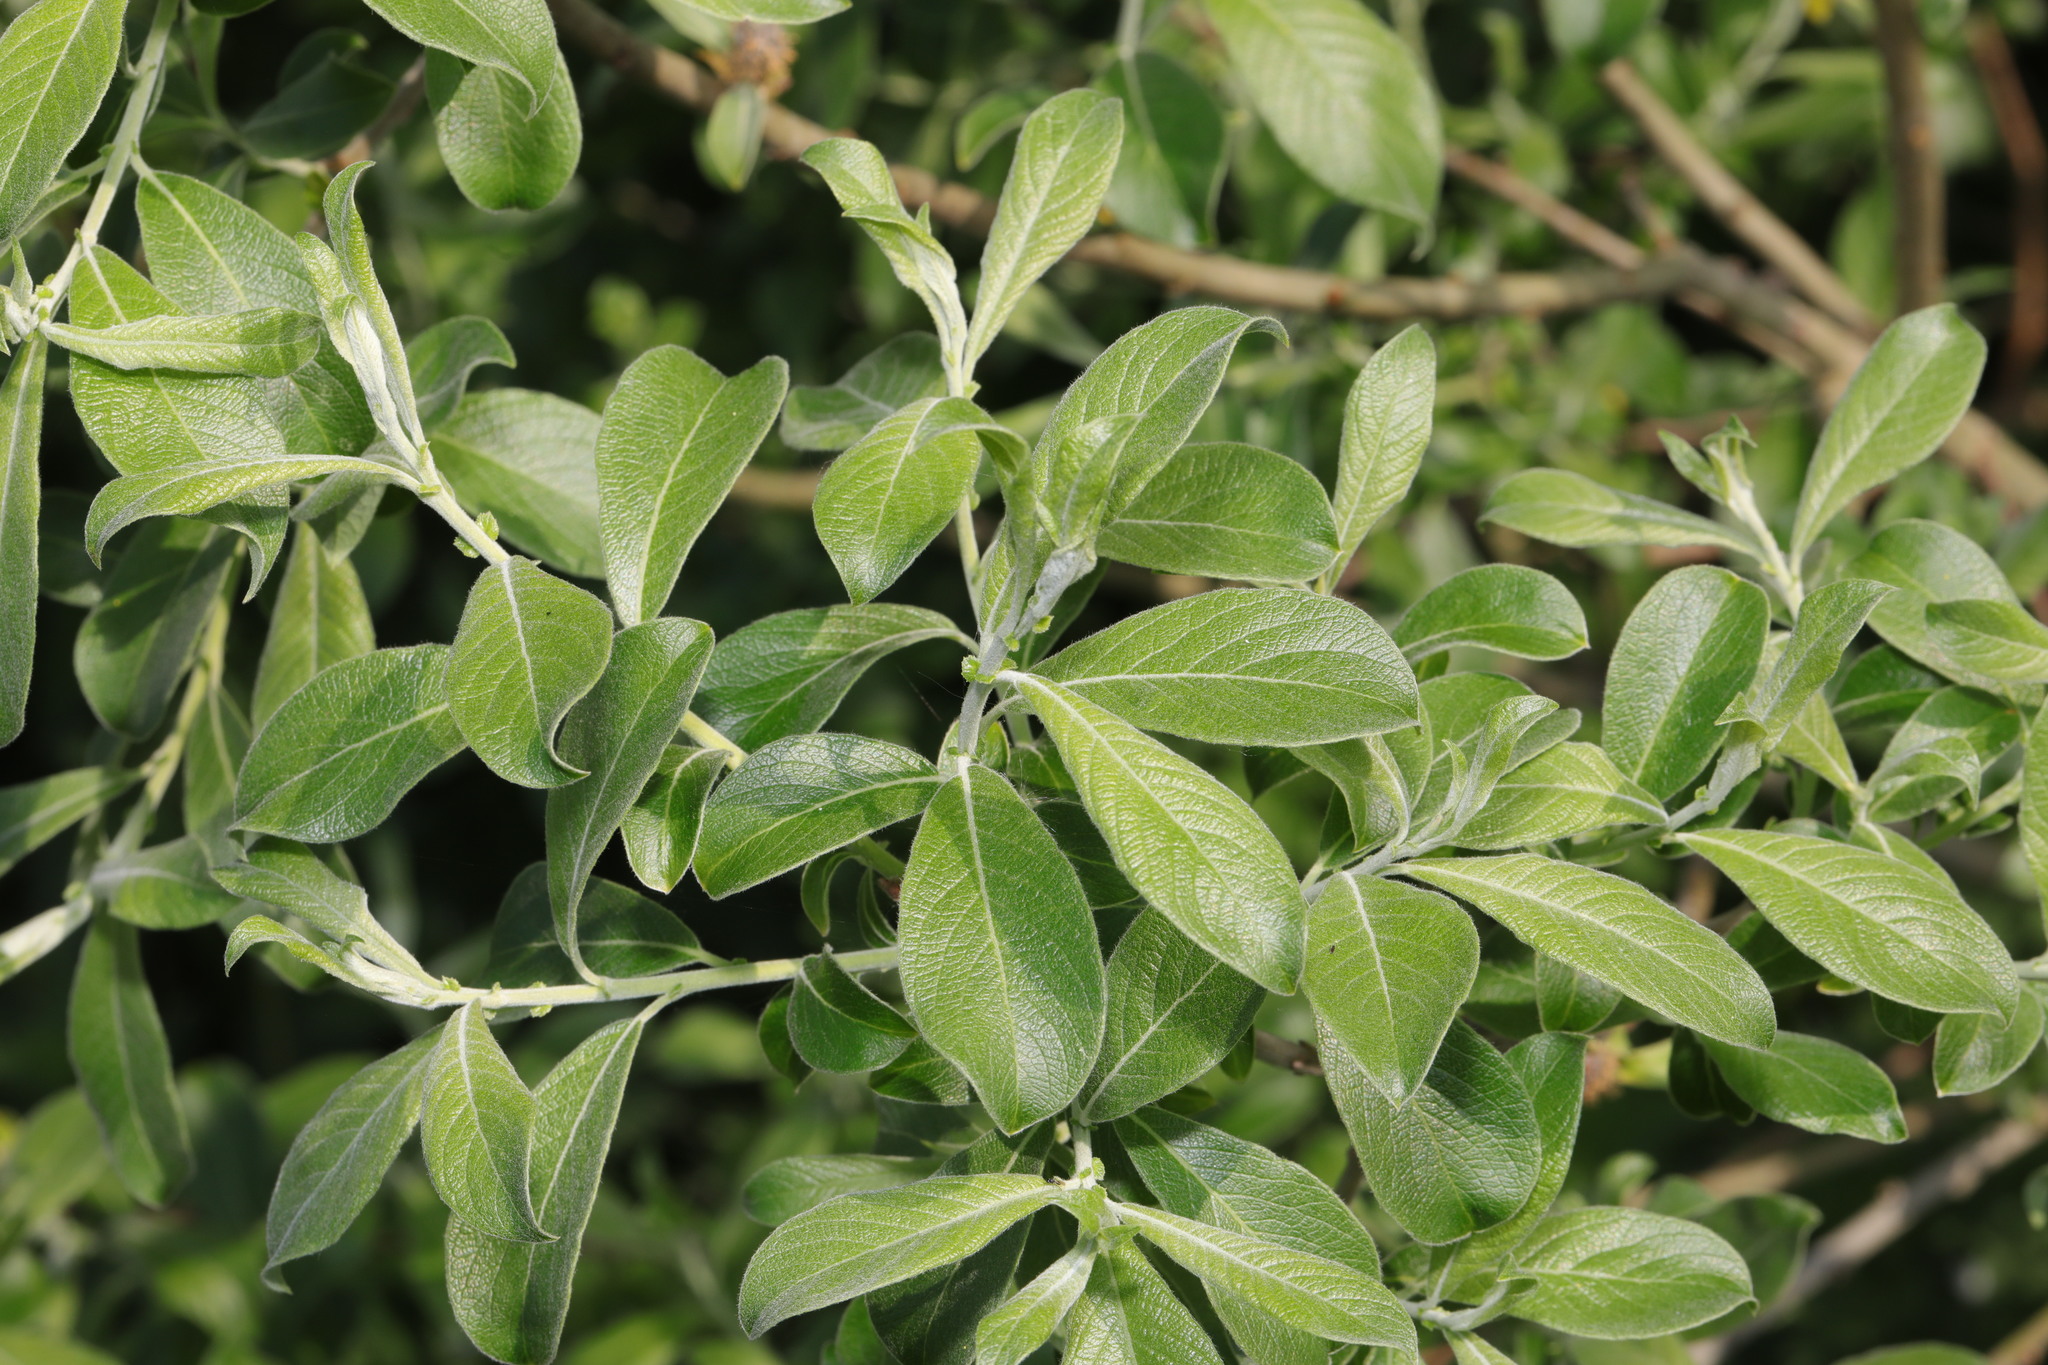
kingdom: Plantae
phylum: Tracheophyta
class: Magnoliopsida
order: Malpighiales
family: Salicaceae
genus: Salix
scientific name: Salix cinerea
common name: Common sallow
